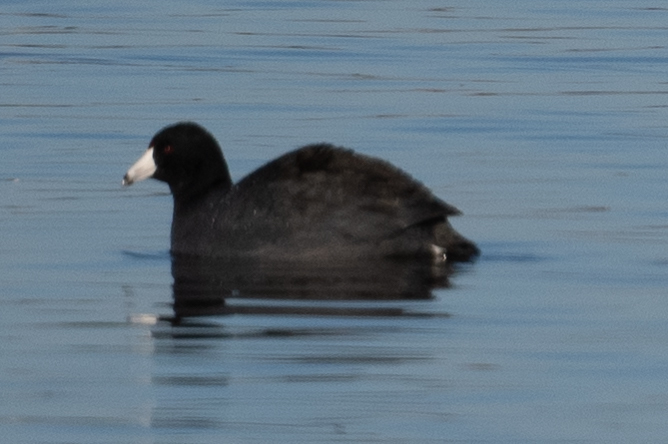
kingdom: Animalia
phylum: Chordata
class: Aves
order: Gruiformes
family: Rallidae
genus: Fulica
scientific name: Fulica americana
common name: American coot
